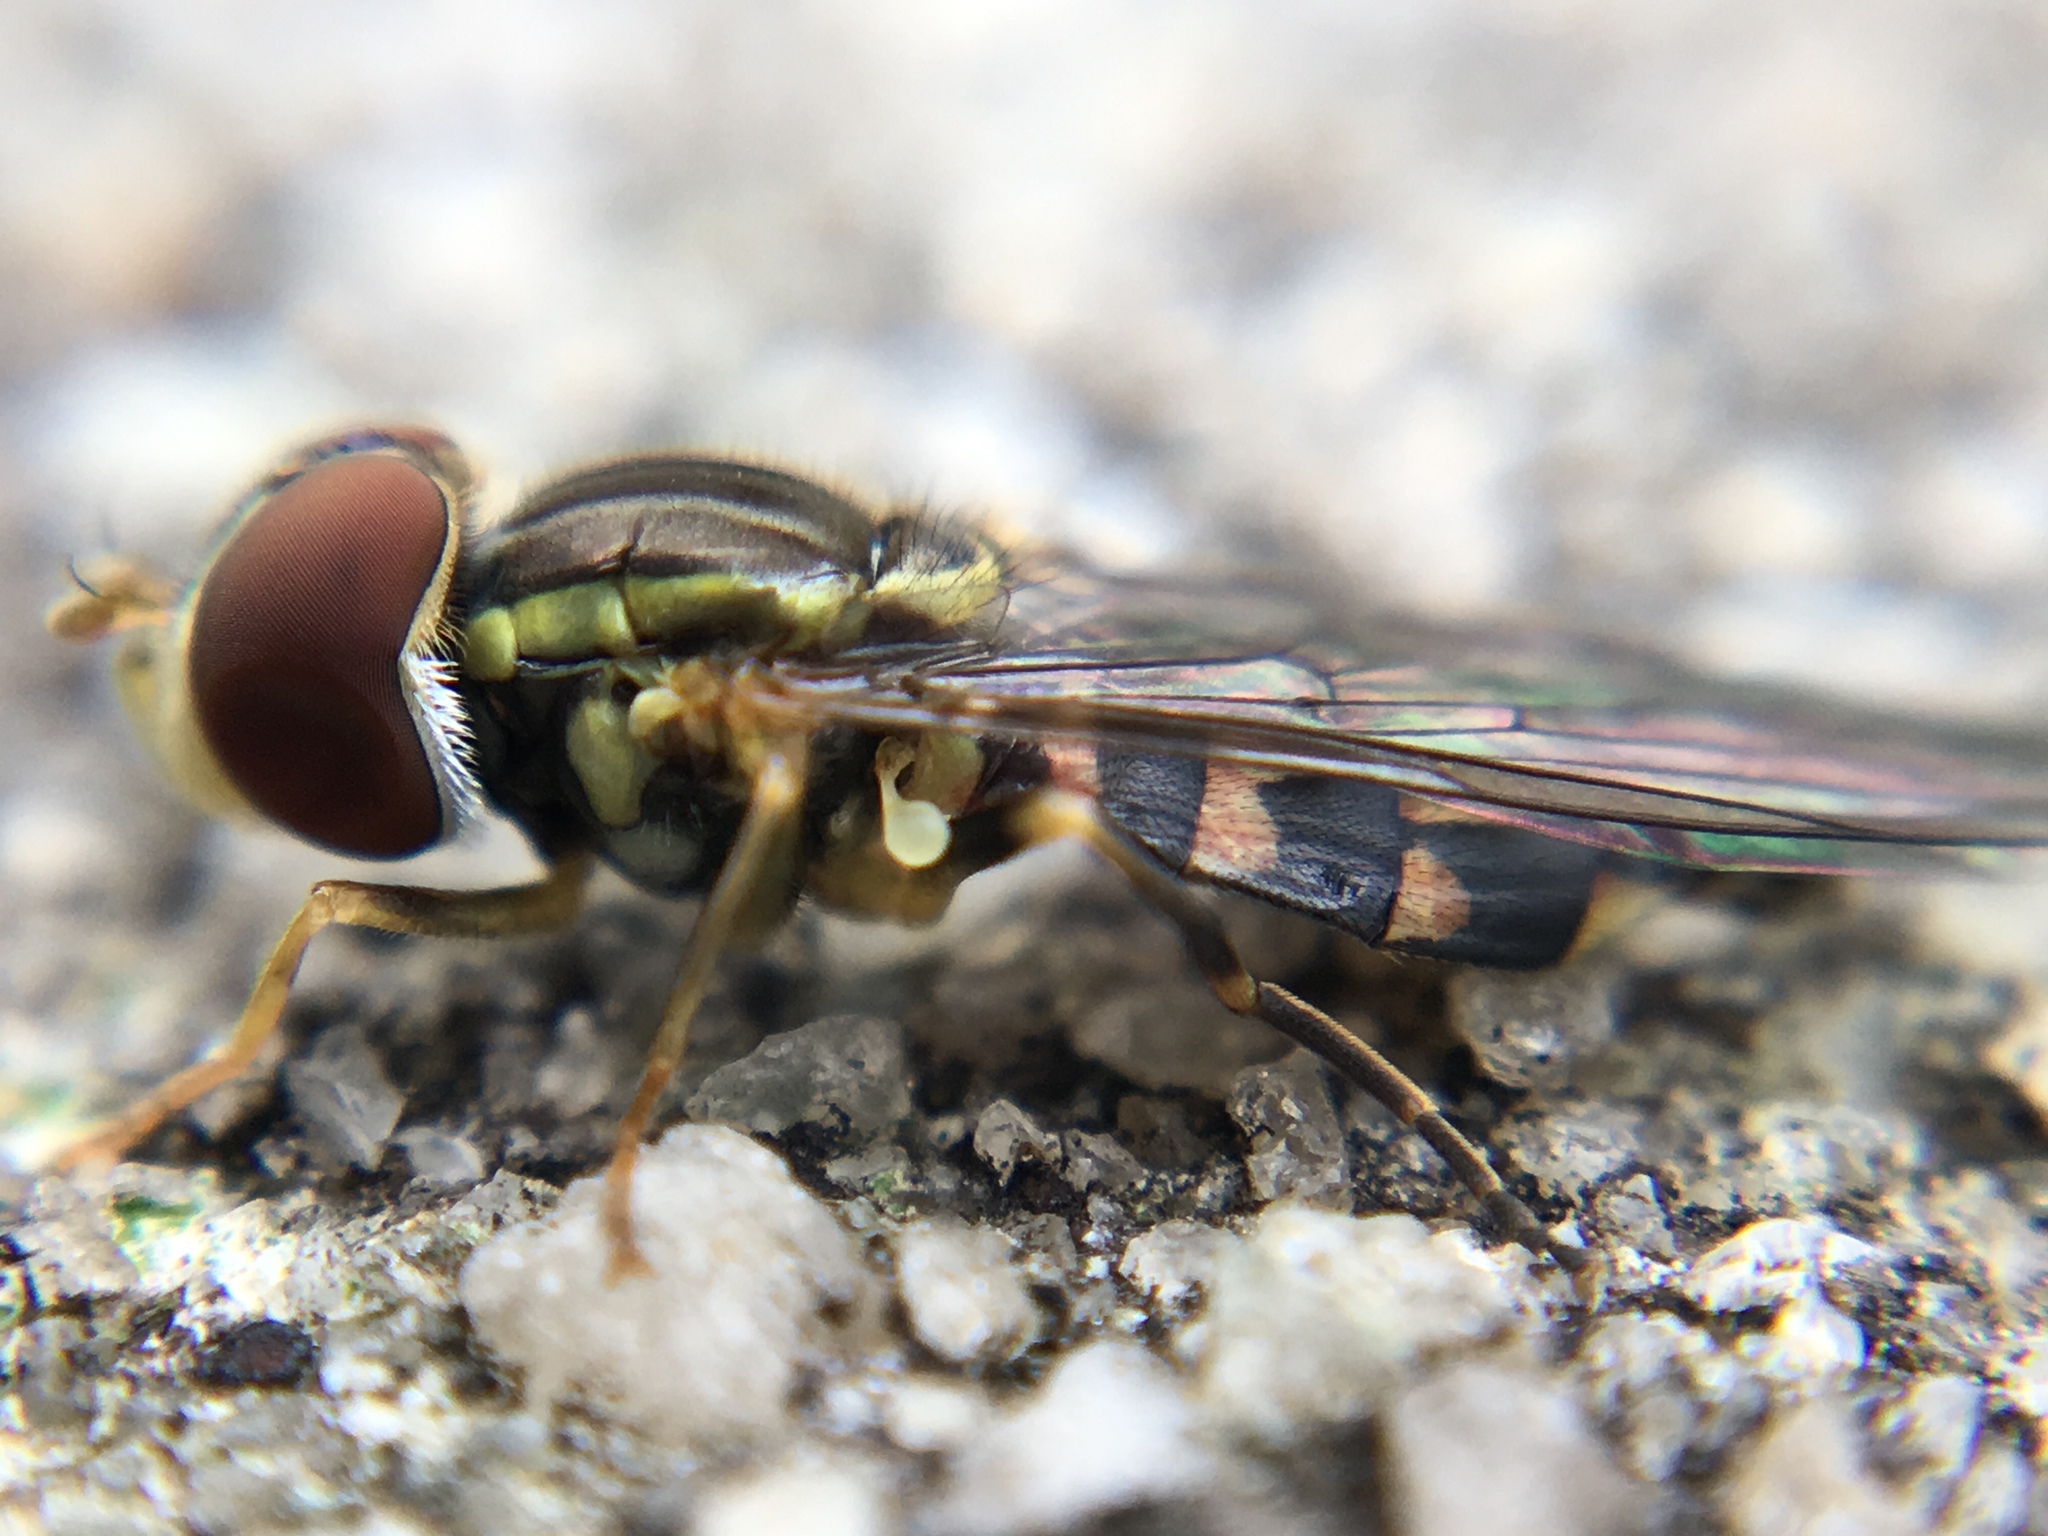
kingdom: Animalia
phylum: Arthropoda
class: Insecta
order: Diptera
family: Syrphidae
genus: Toxomerus
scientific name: Toxomerus geminatus
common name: Eastern calligrapher
